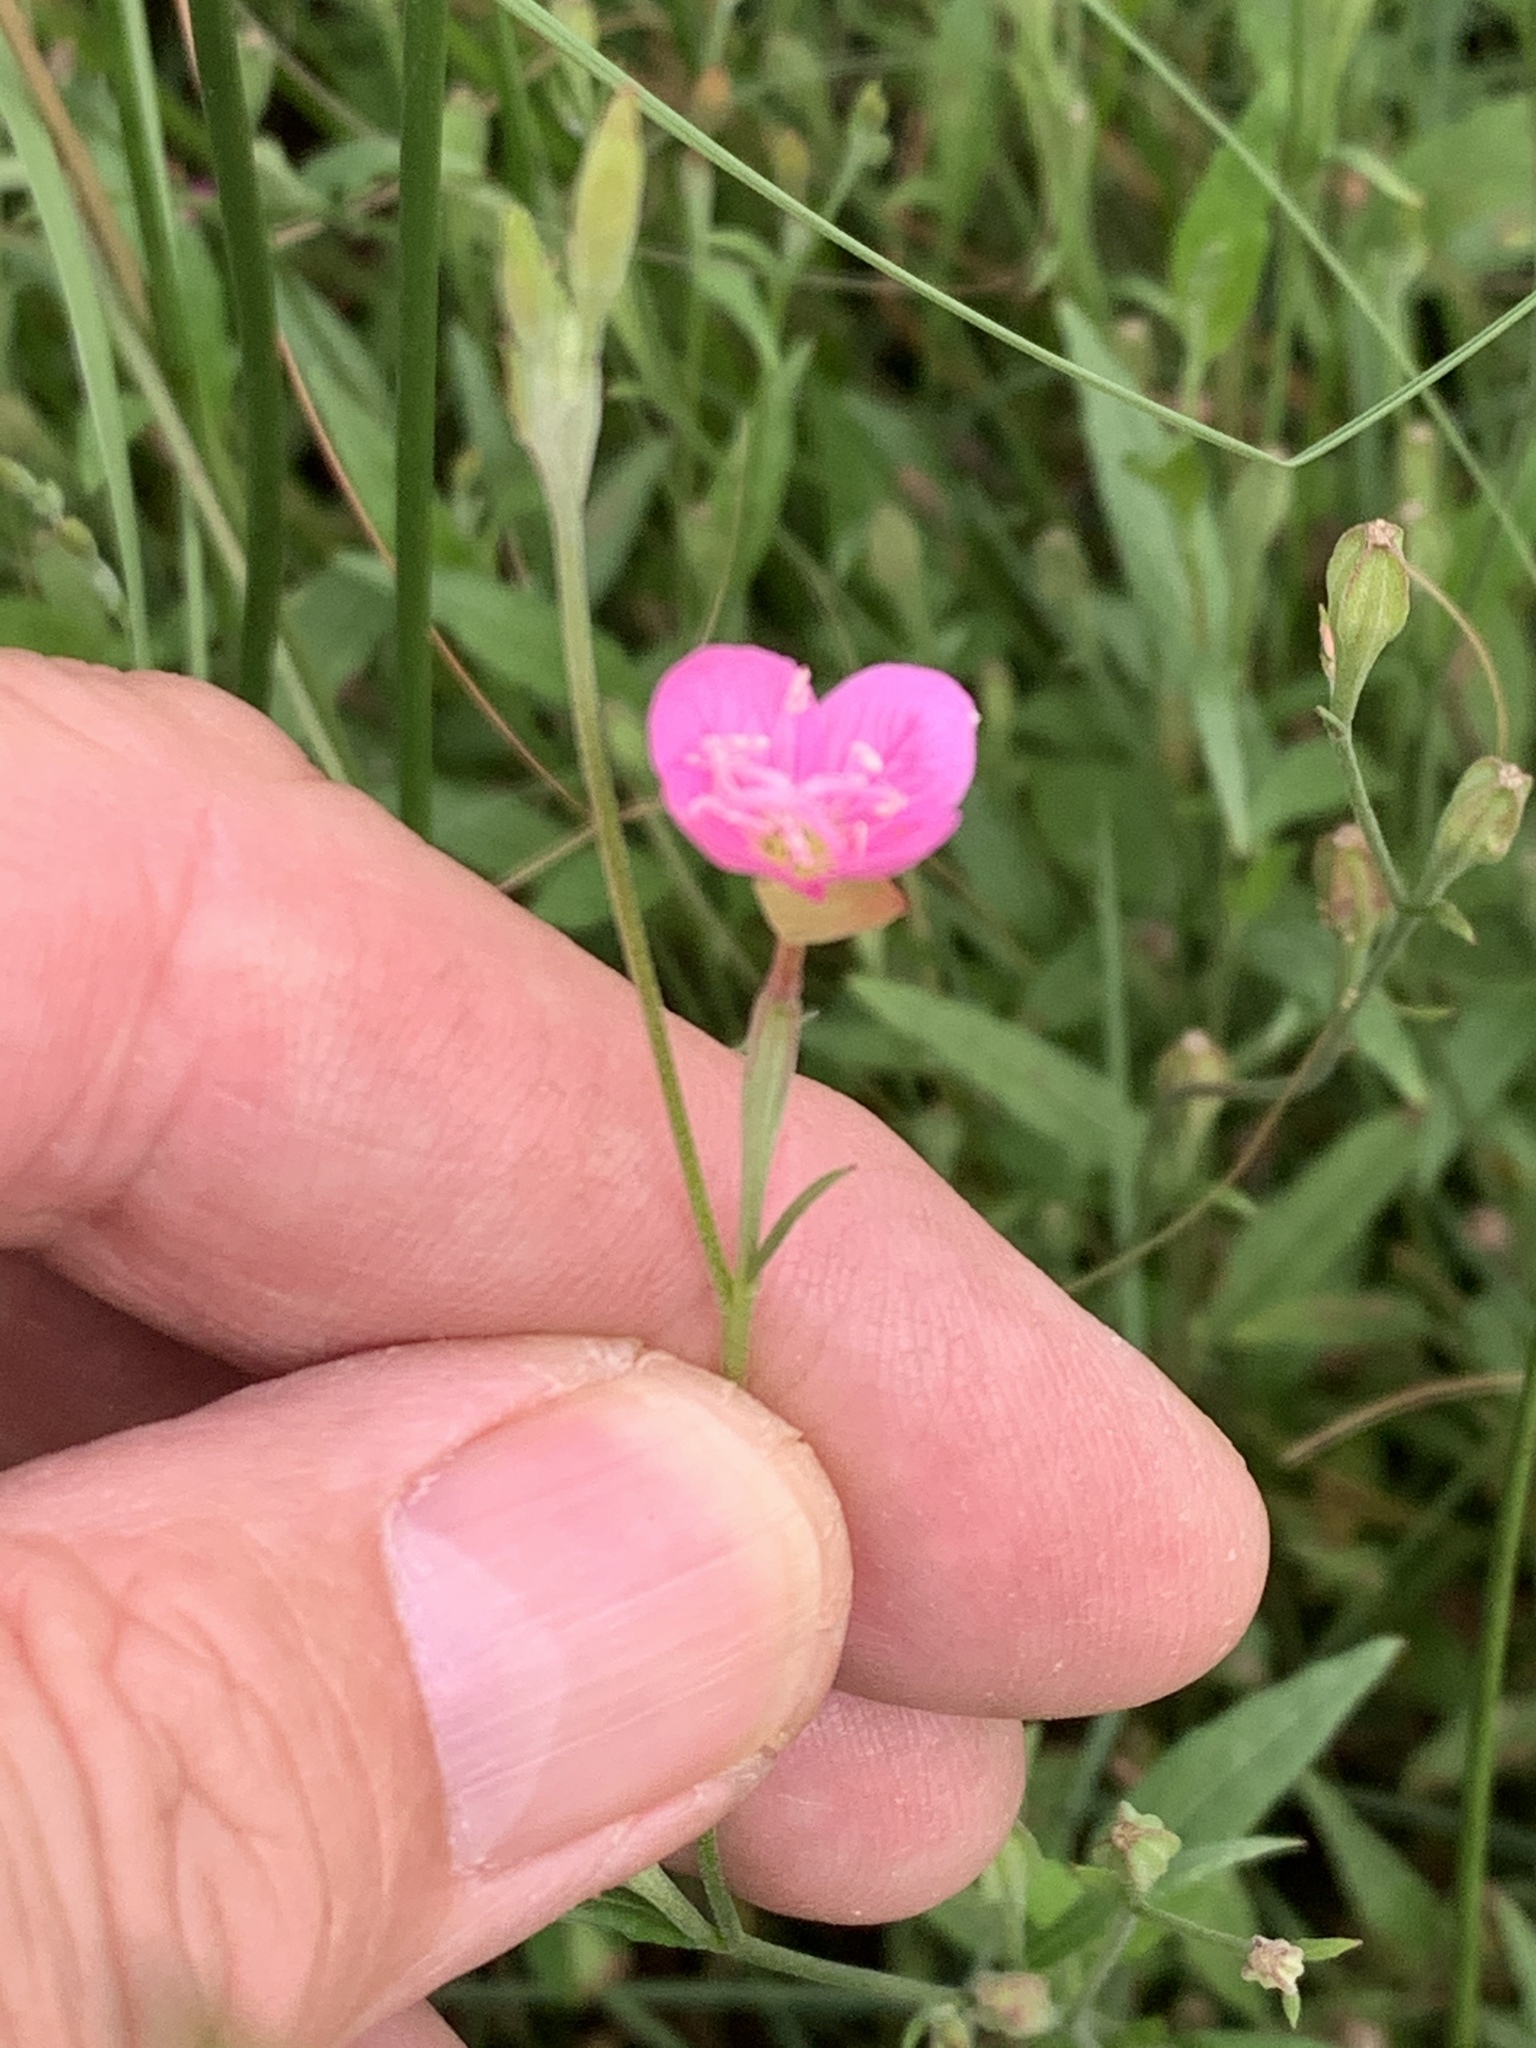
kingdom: Plantae
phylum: Tracheophyta
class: Magnoliopsida
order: Myrtales
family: Onagraceae
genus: Oenothera
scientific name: Oenothera rosea
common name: Rosy evening-primrose
